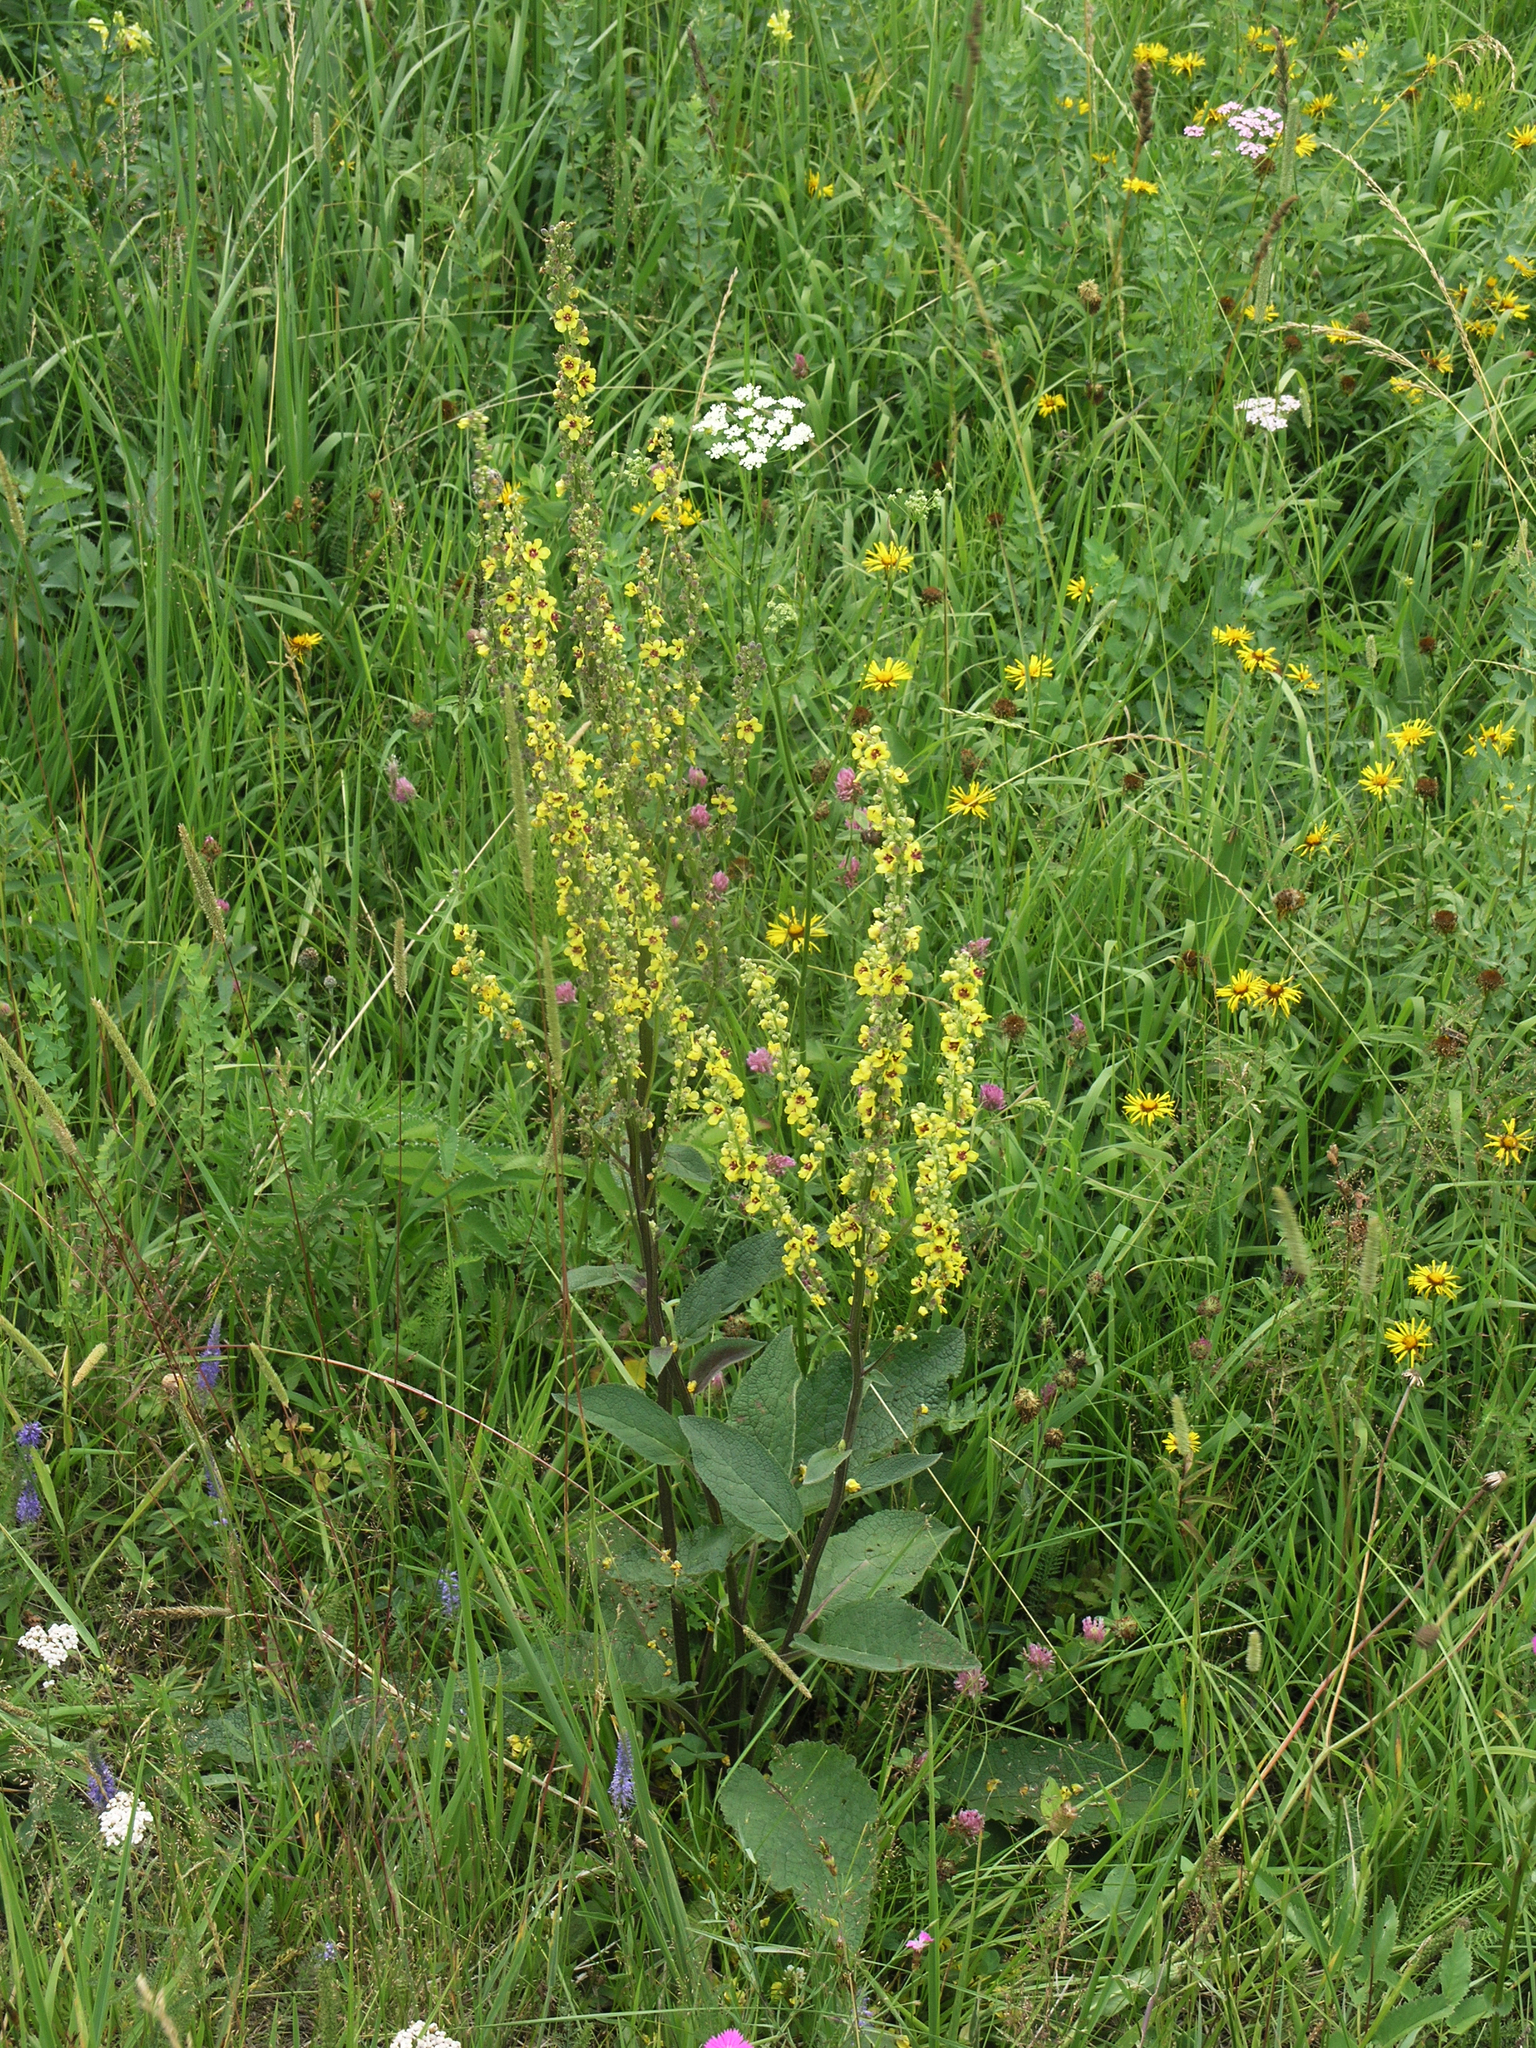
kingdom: Plantae
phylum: Tracheophyta
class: Magnoliopsida
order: Lamiales
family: Scrophulariaceae
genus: Verbascum
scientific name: Verbascum nigrum
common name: Dark mullein
